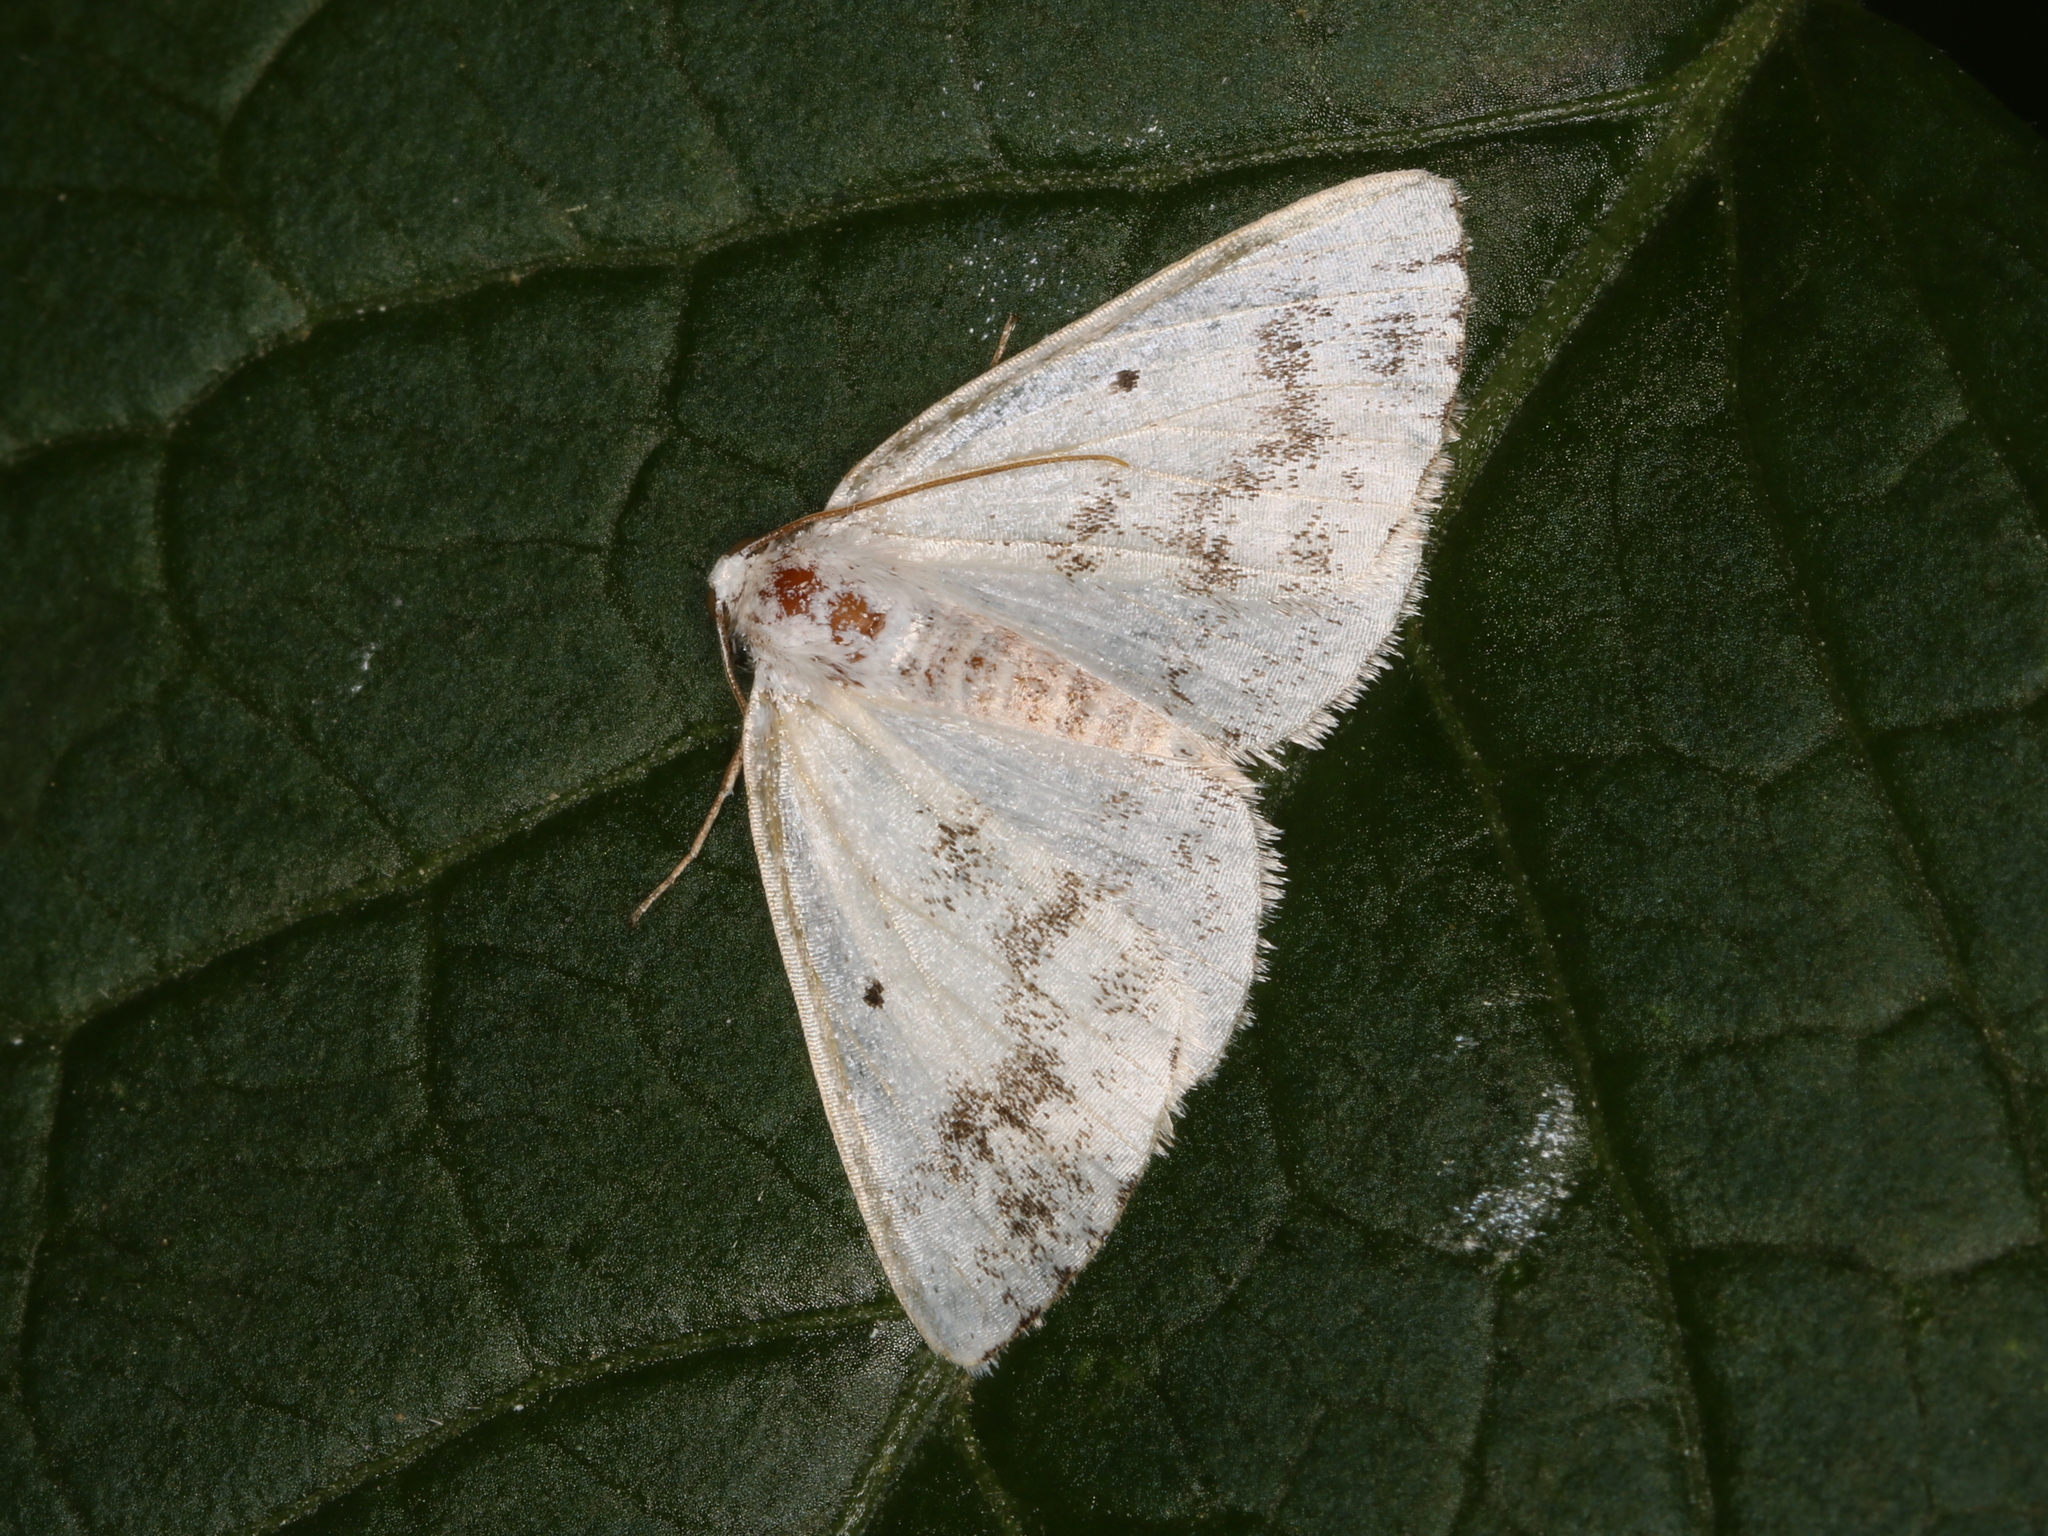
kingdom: Animalia
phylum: Arthropoda
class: Insecta
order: Lepidoptera
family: Geometridae
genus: Lomographa
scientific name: Lomographa temerata
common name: Clouded silver
